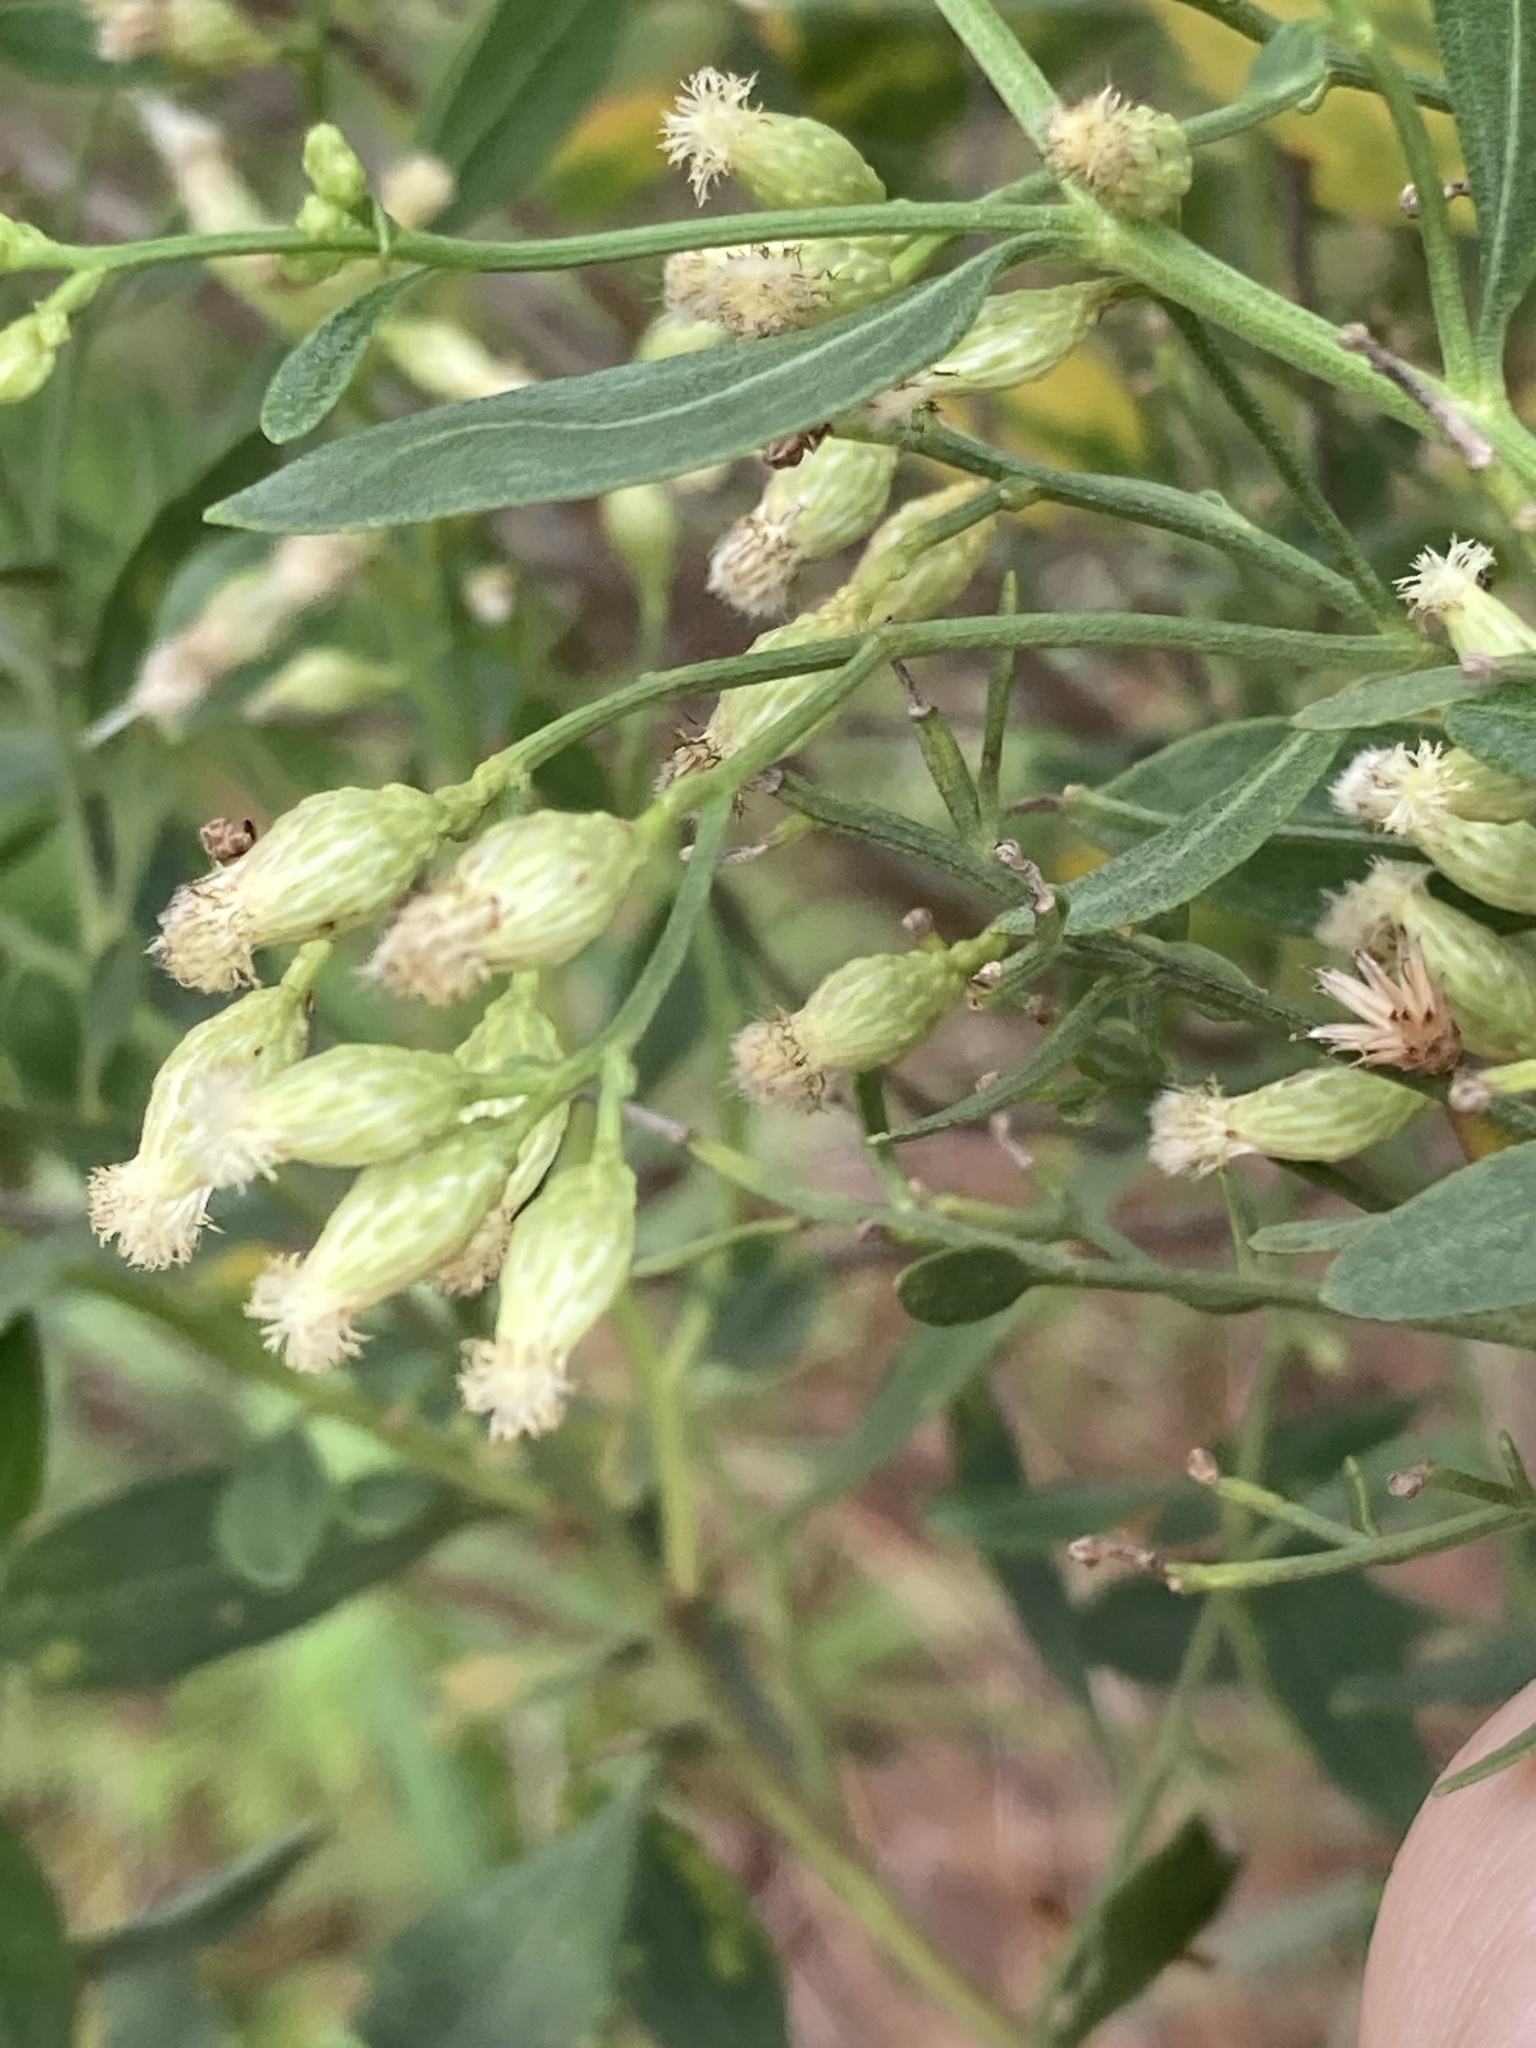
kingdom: Plantae
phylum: Tracheophyta
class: Magnoliopsida
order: Asterales
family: Asteraceae
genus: Baccharis
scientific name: Baccharis halimifolia
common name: Eastern baccharis
